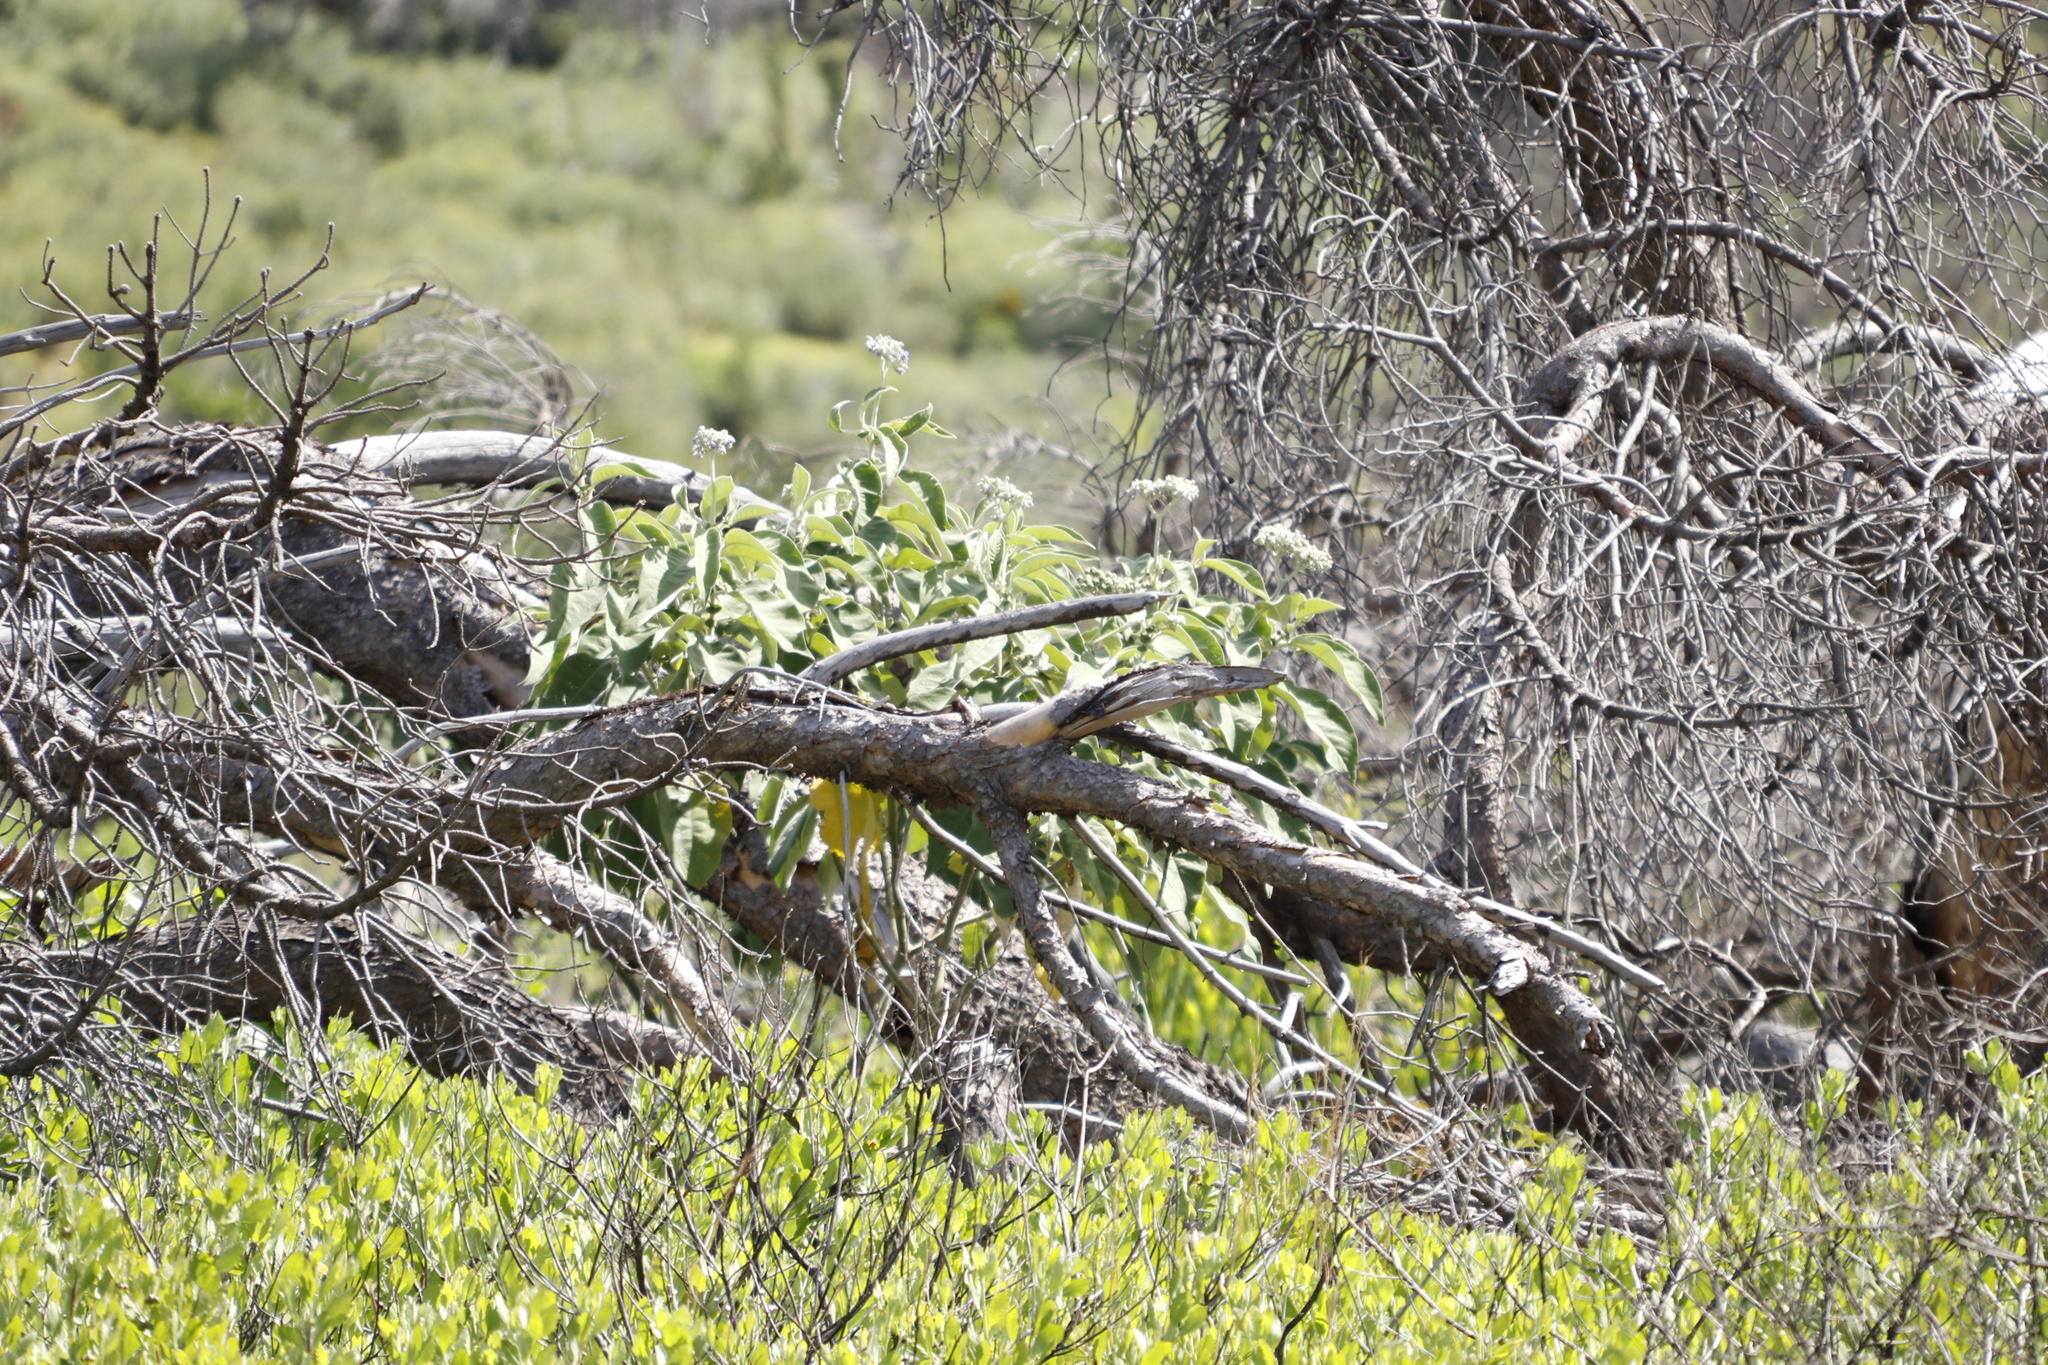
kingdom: Plantae
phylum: Tracheophyta
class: Magnoliopsida
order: Solanales
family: Solanaceae
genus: Solanum
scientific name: Solanum mauritianum
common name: Earleaf nightshade
